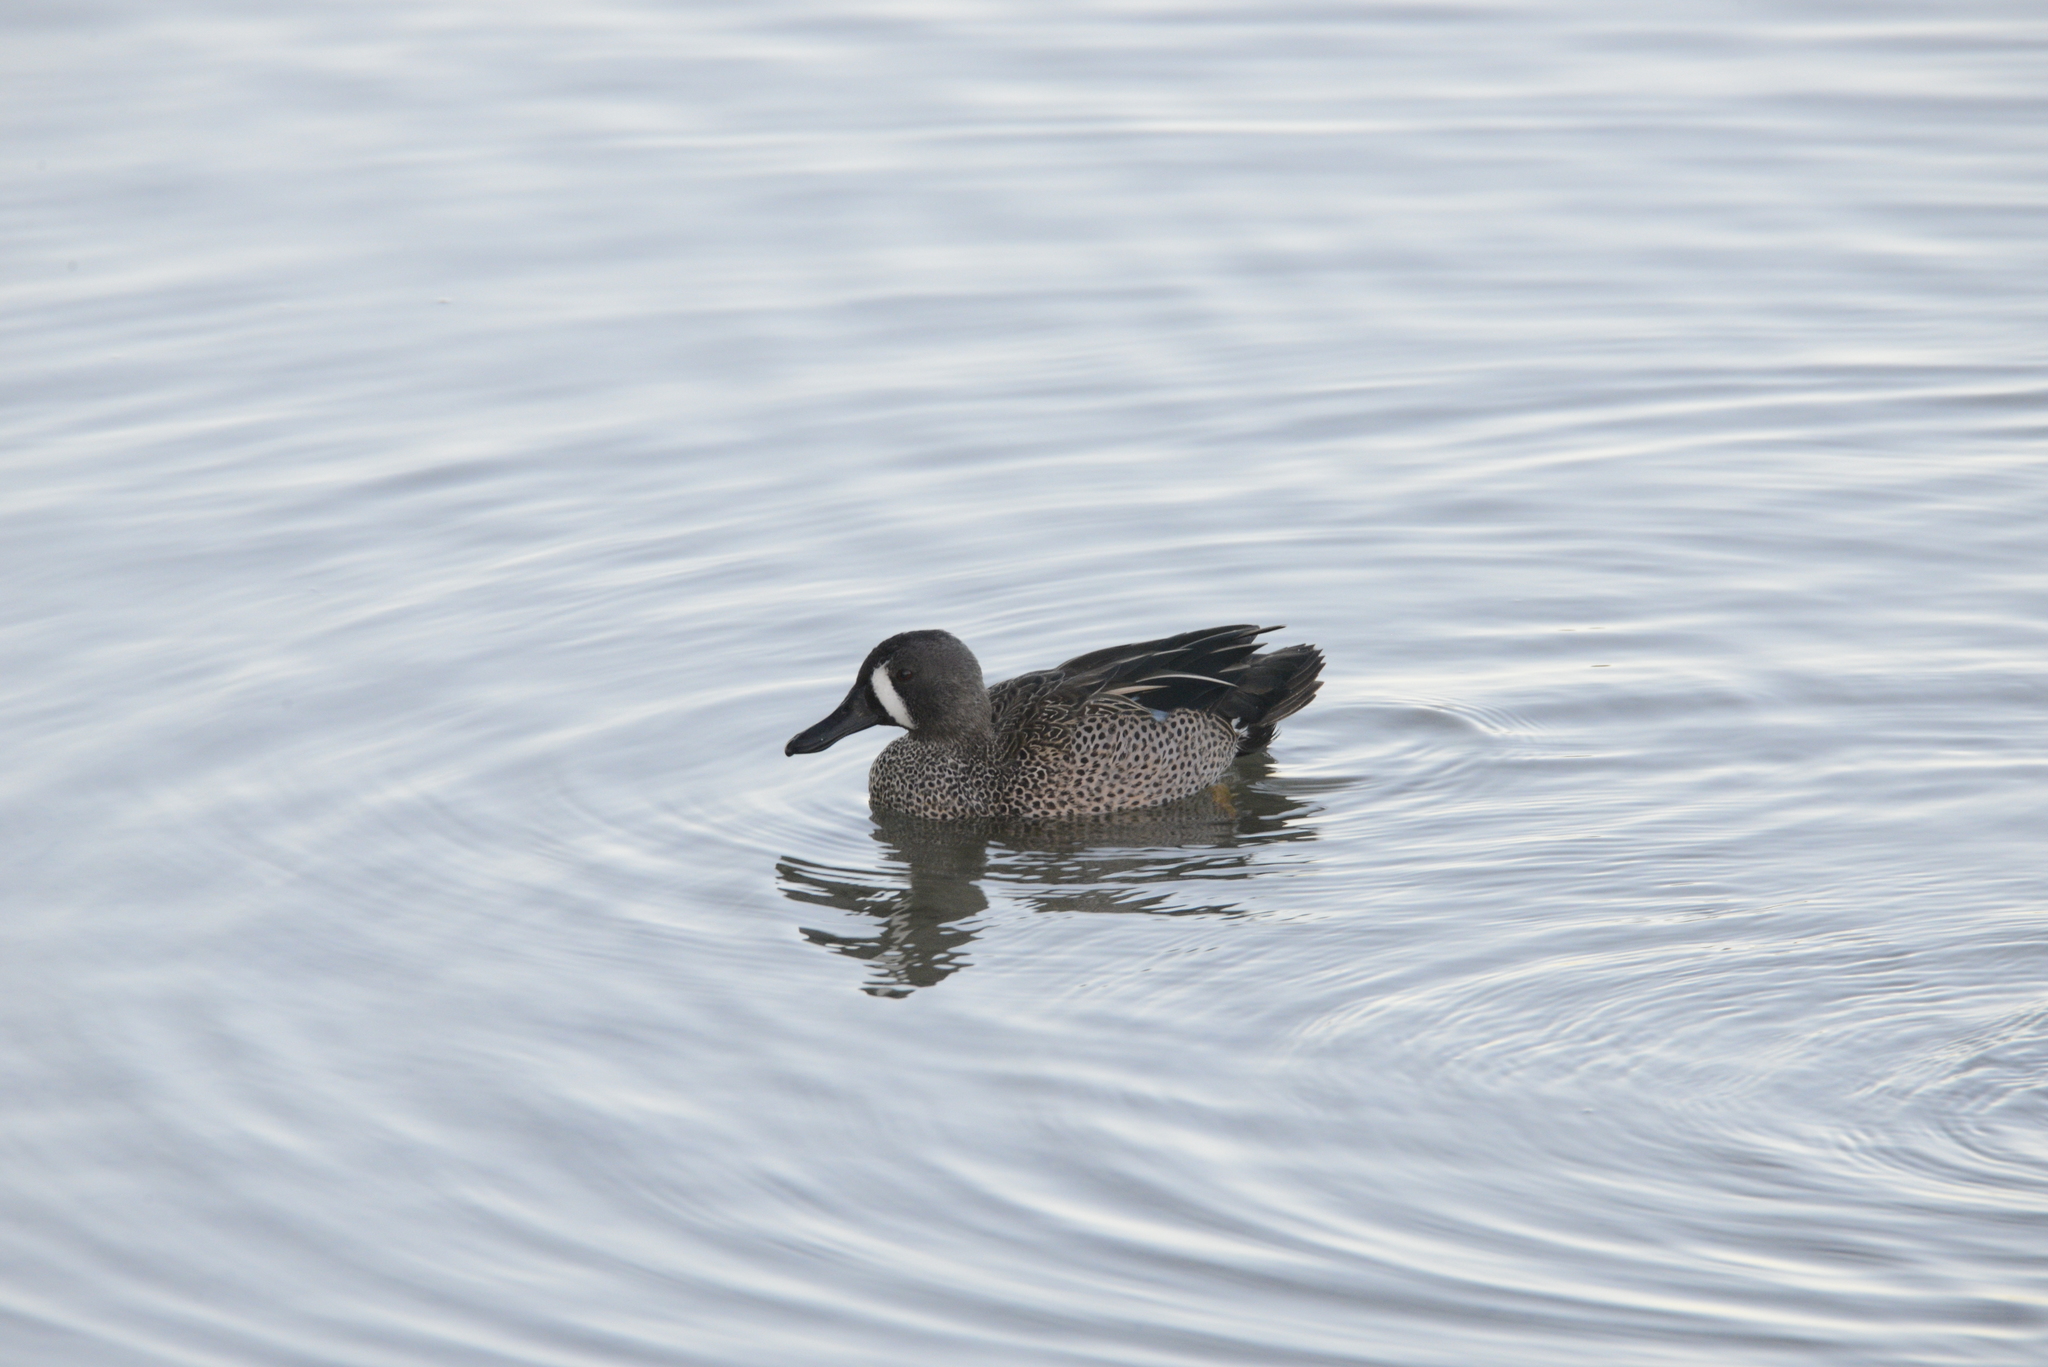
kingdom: Animalia
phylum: Chordata
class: Aves
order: Anseriformes
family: Anatidae
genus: Spatula
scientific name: Spatula discors
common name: Blue-winged teal
